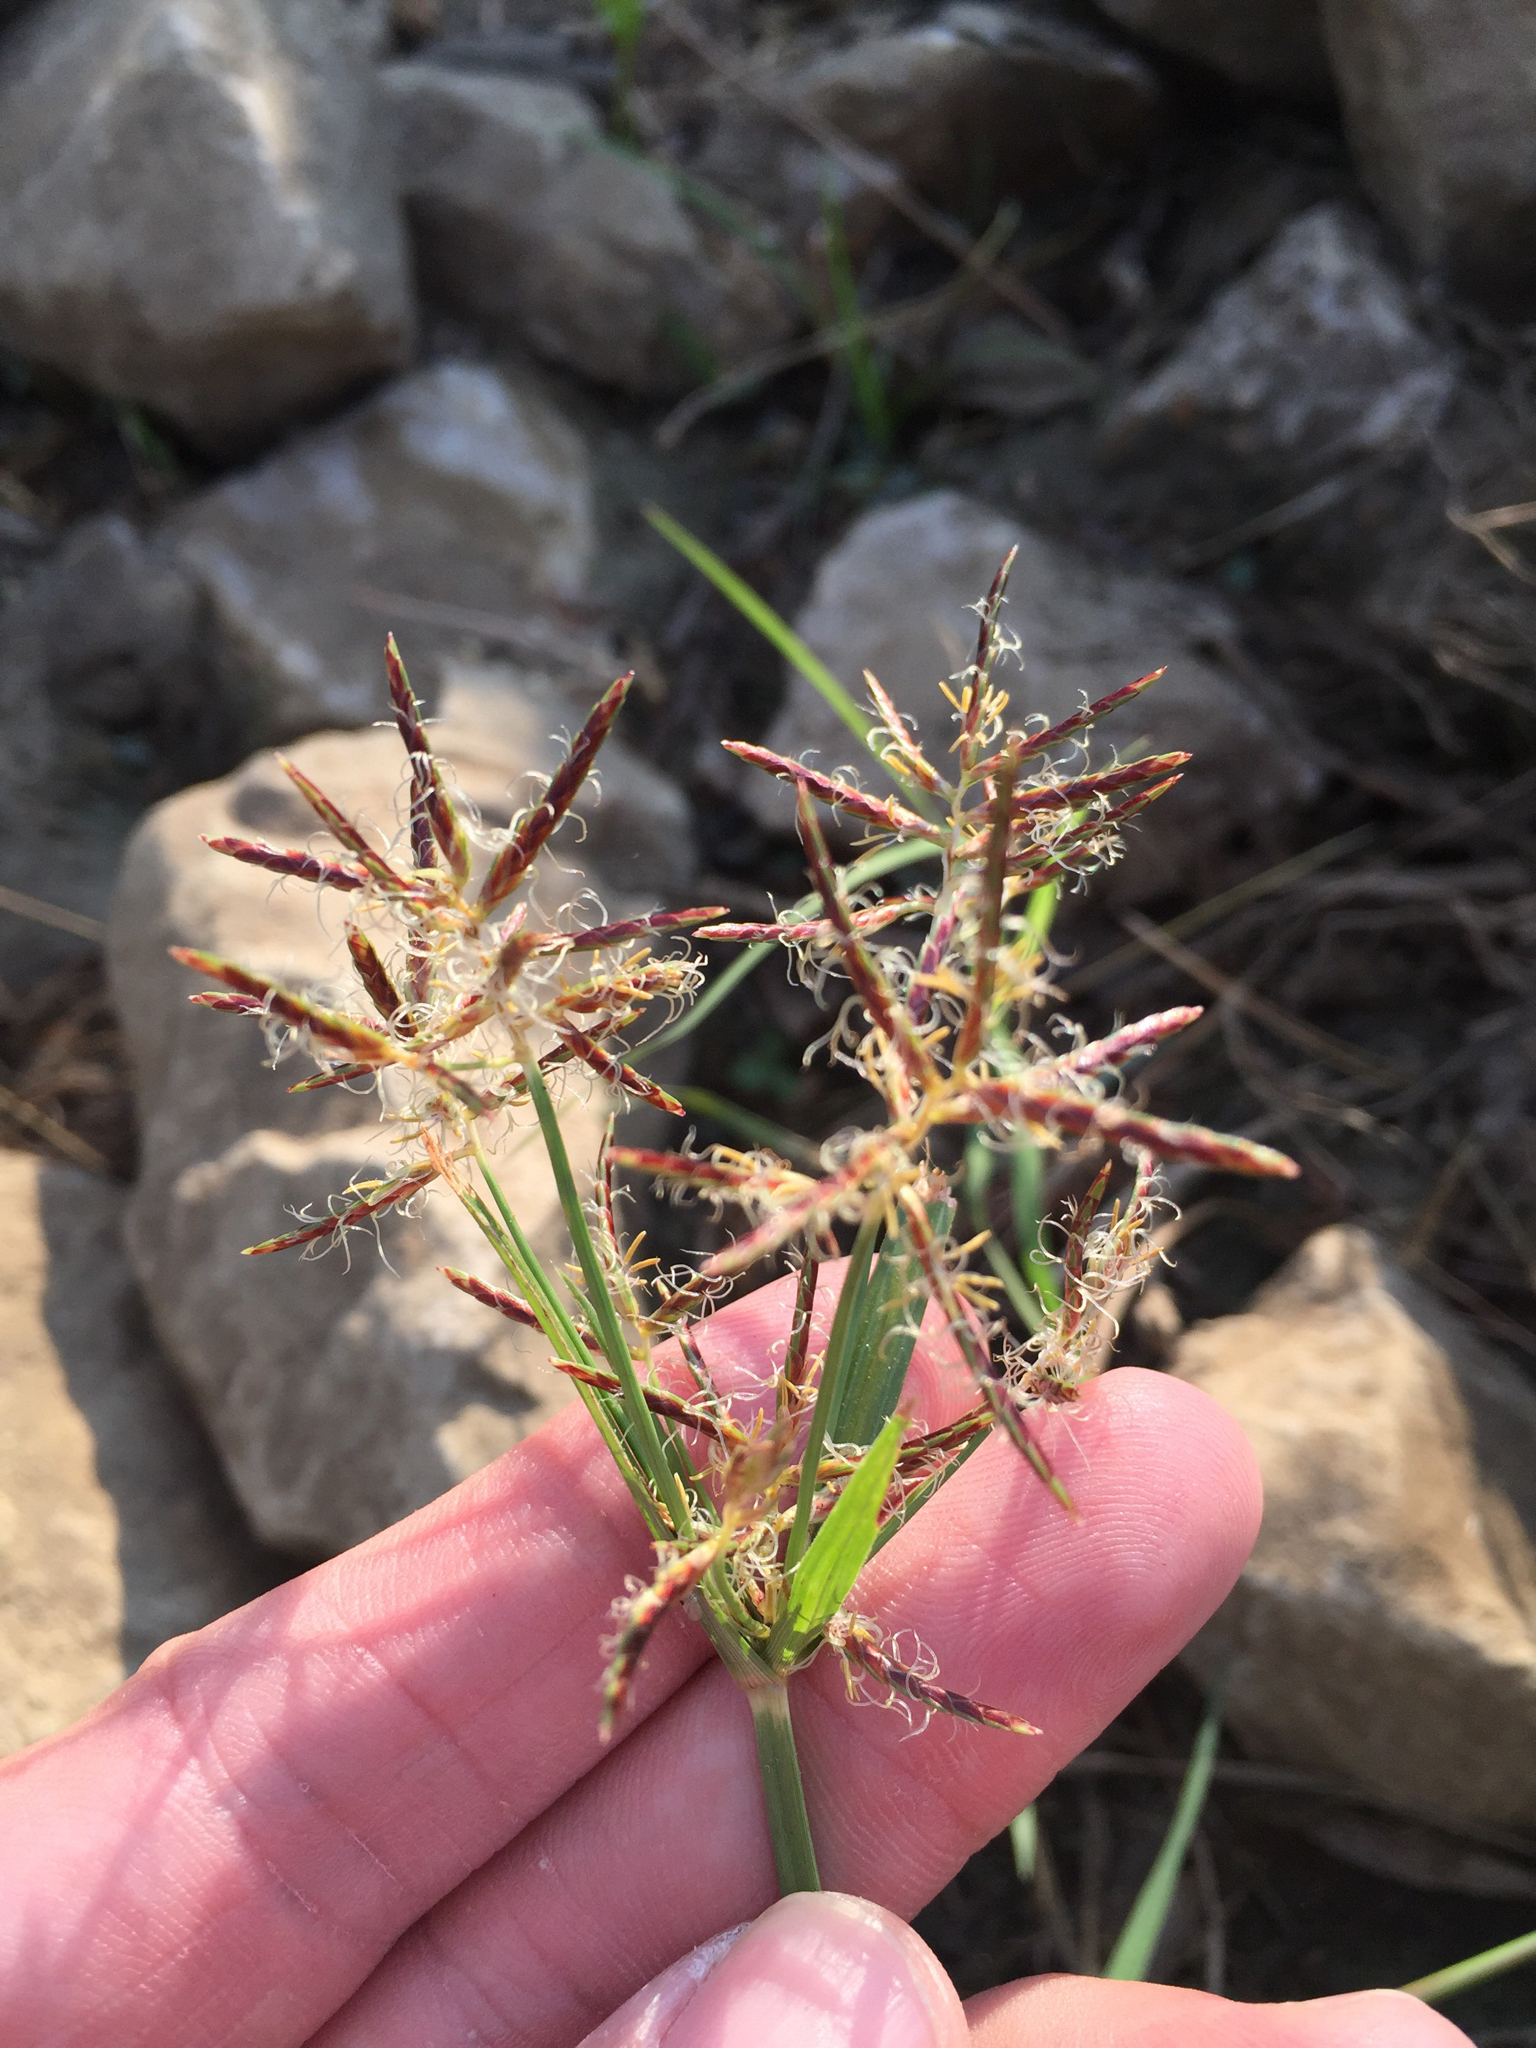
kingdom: Plantae
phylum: Tracheophyta
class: Liliopsida
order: Poales
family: Cyperaceae
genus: Cyperus
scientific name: Cyperus rotundus
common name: Nutgrass
